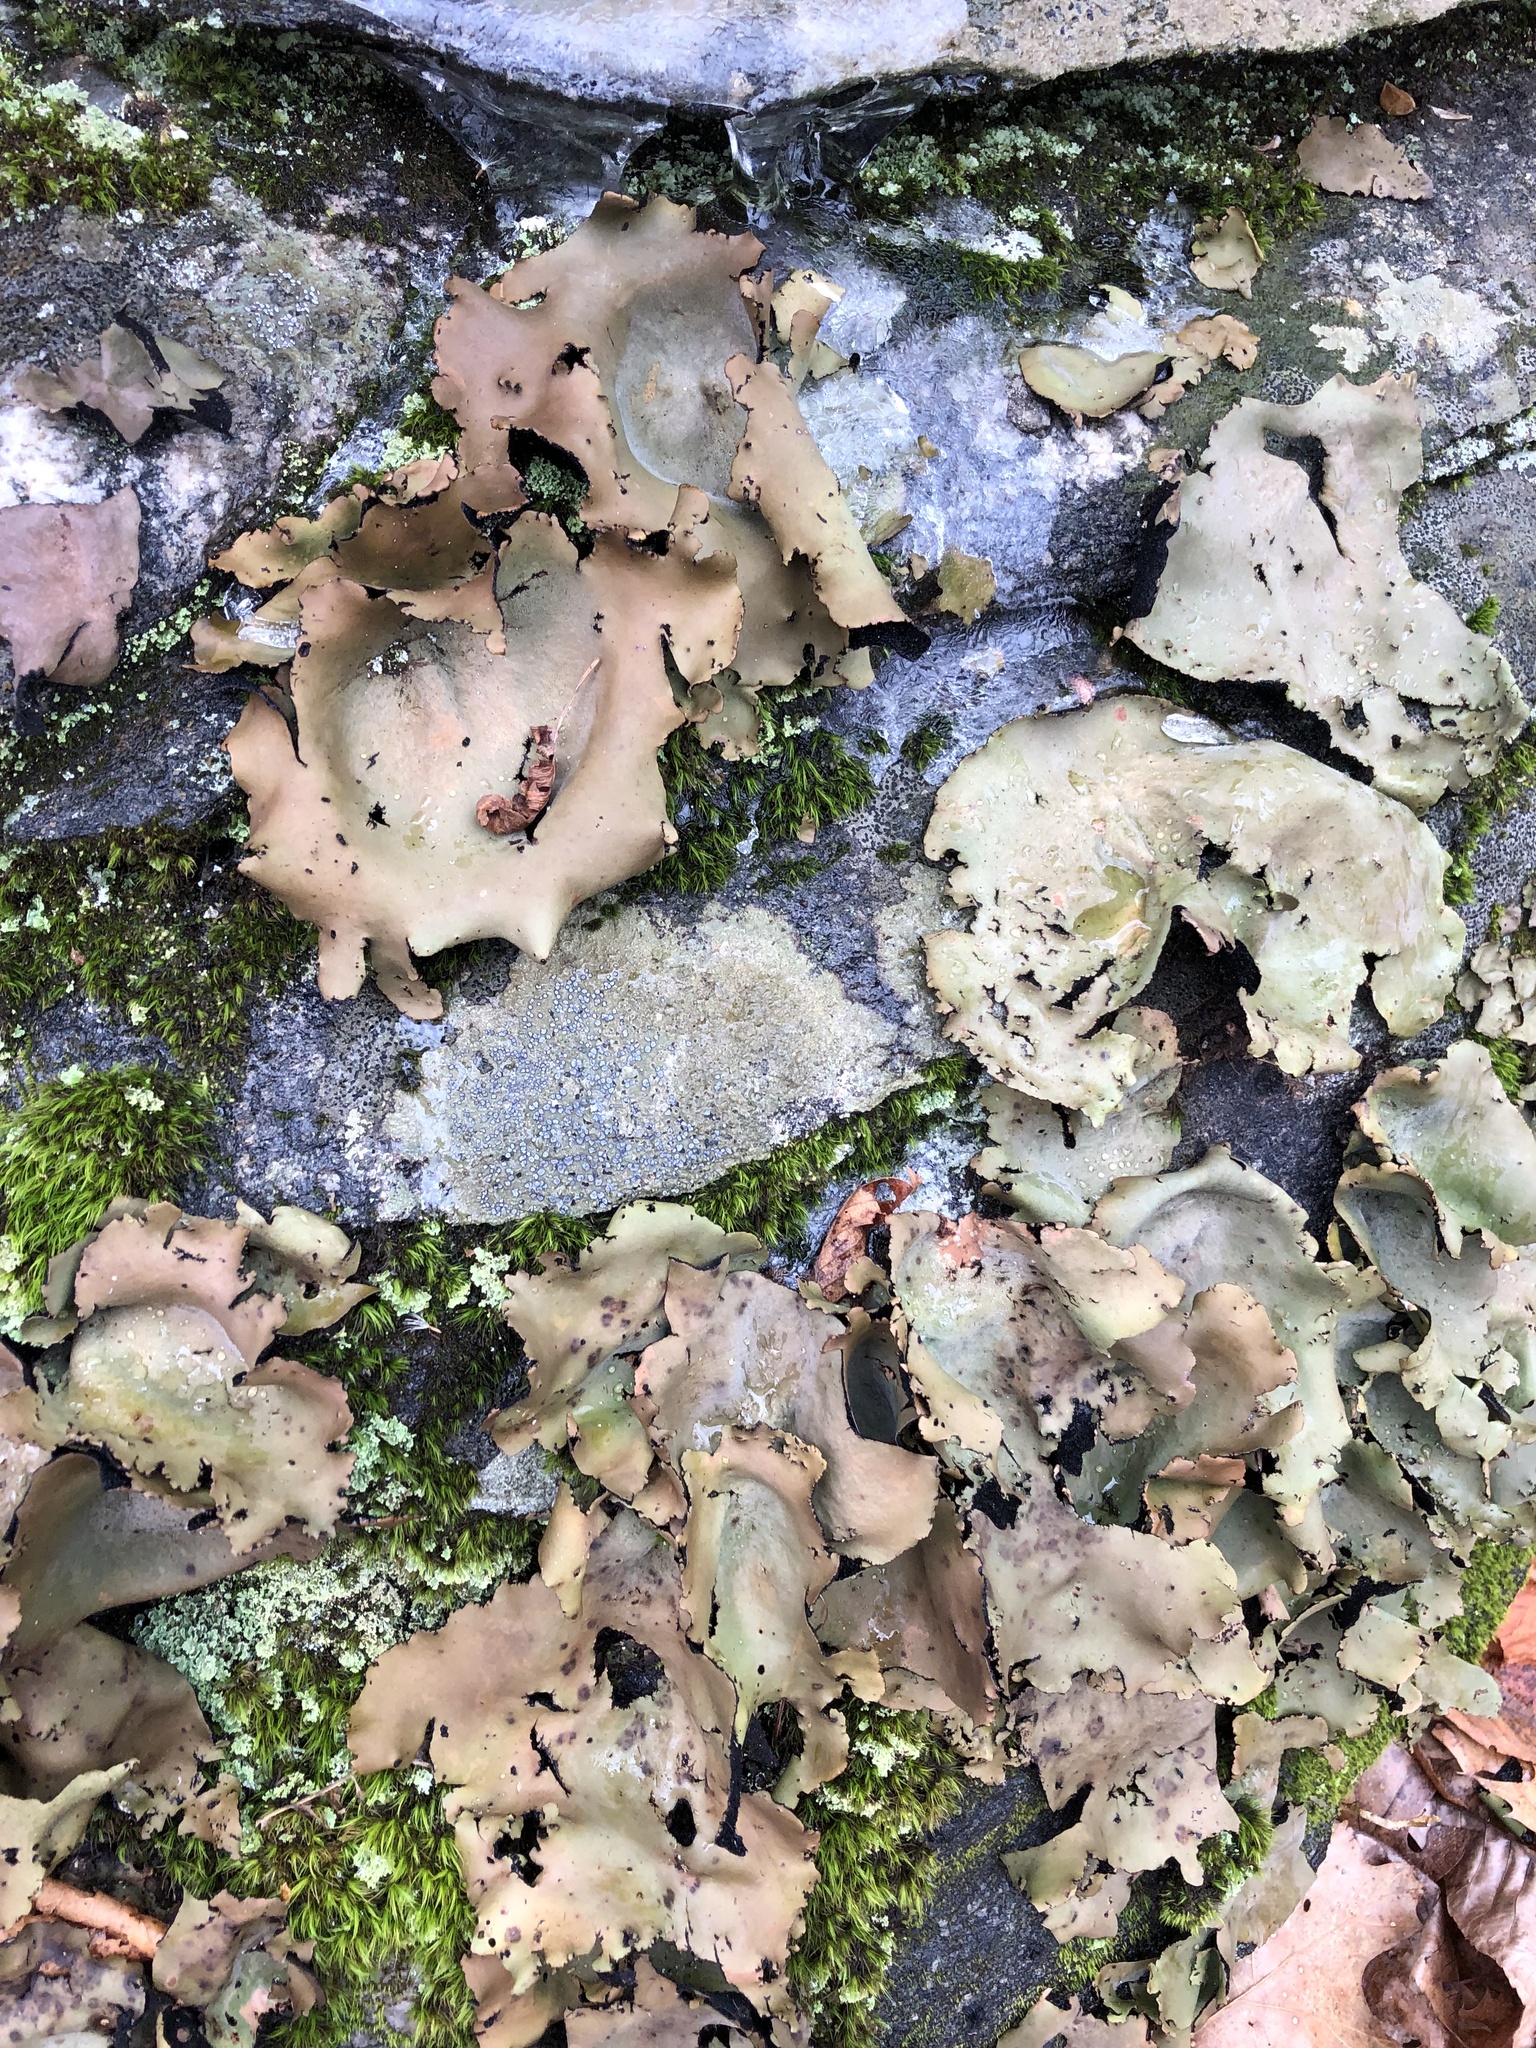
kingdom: Fungi
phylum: Ascomycota
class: Lecanoromycetes
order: Umbilicariales
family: Umbilicariaceae
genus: Umbilicaria
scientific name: Umbilicaria mammulata
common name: Smooth rock tripe
